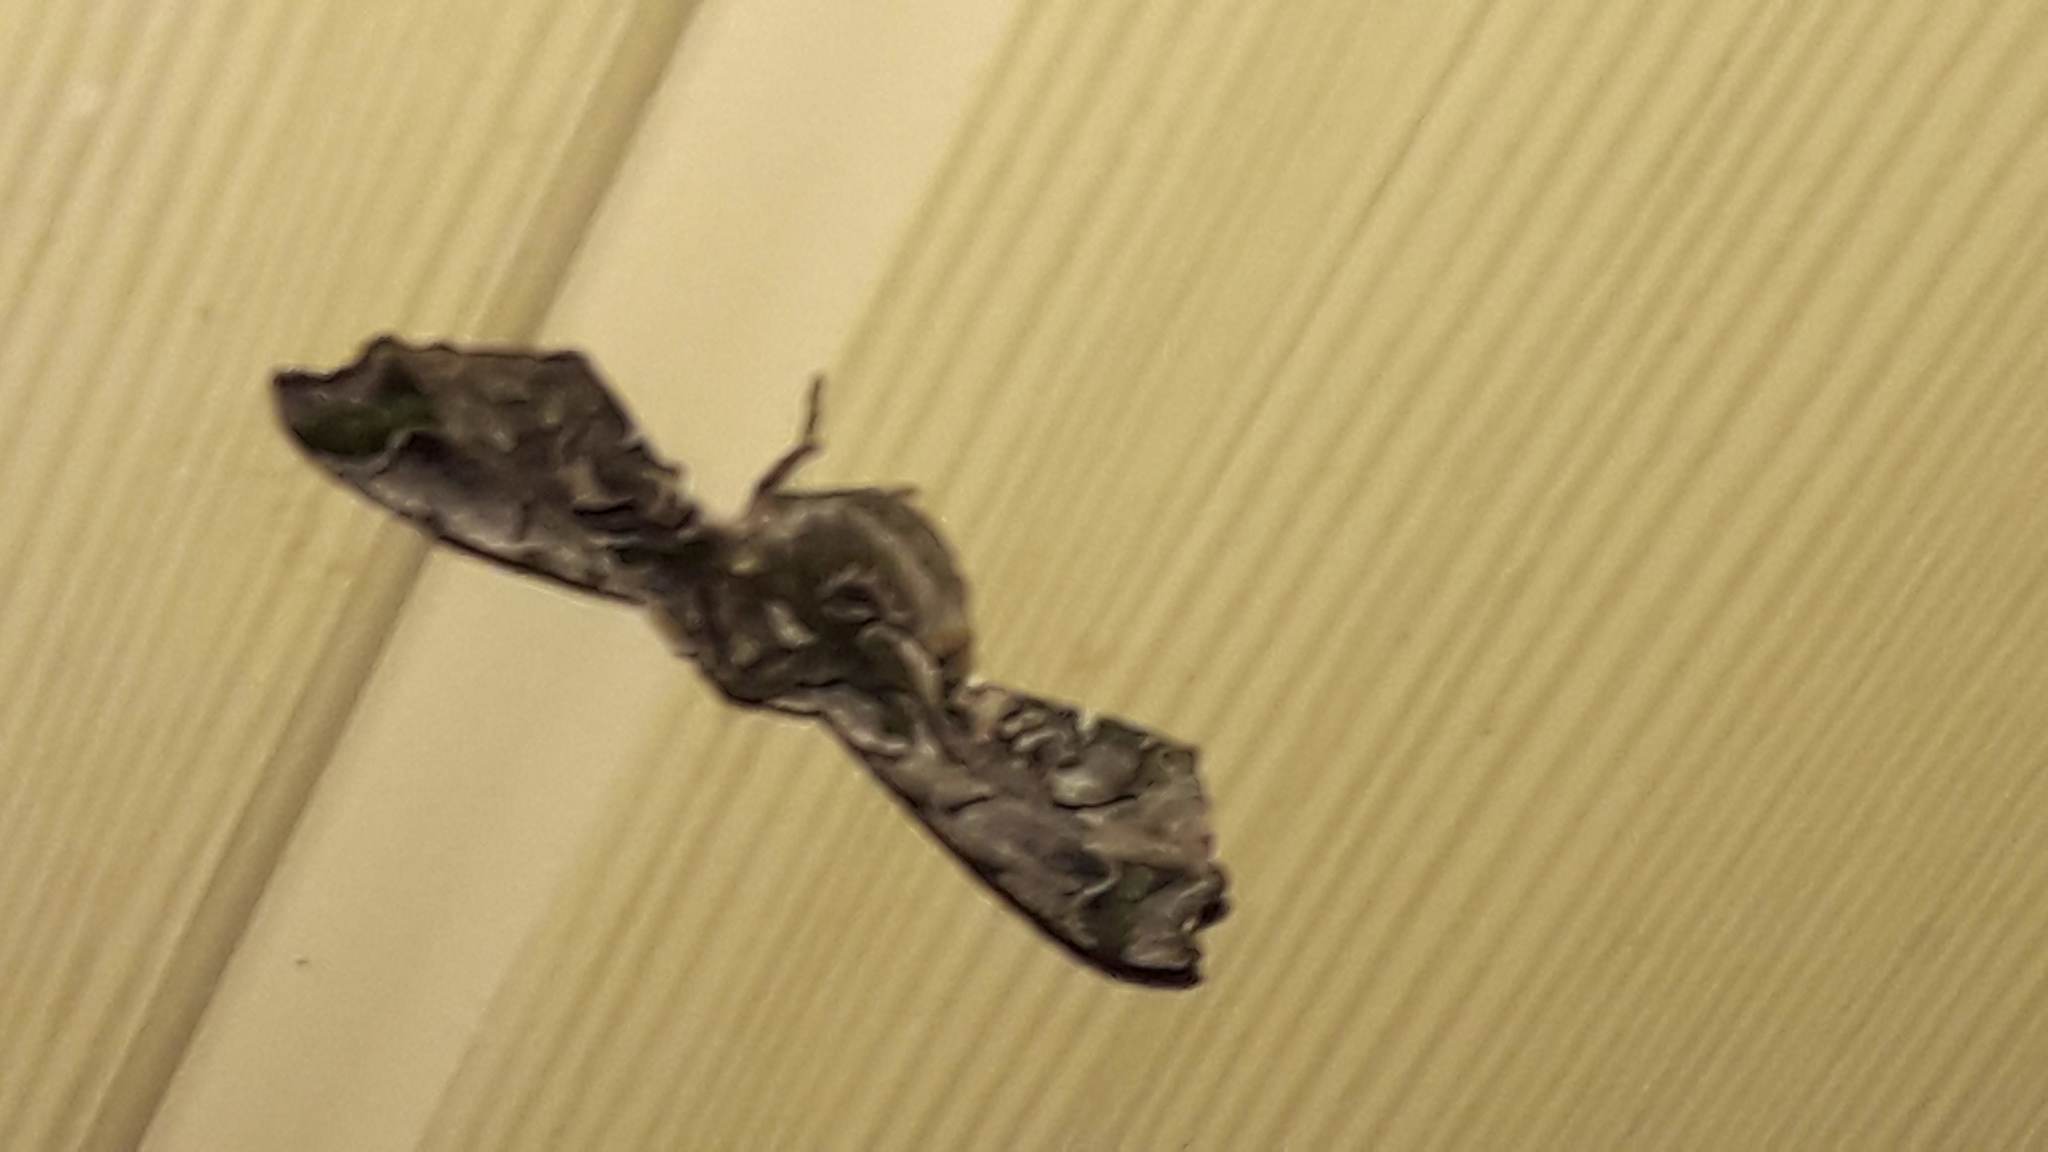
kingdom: Animalia
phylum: Arthropoda
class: Insecta
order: Lepidoptera
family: Bombycidae
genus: Quentalia
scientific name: Quentalia chromana
